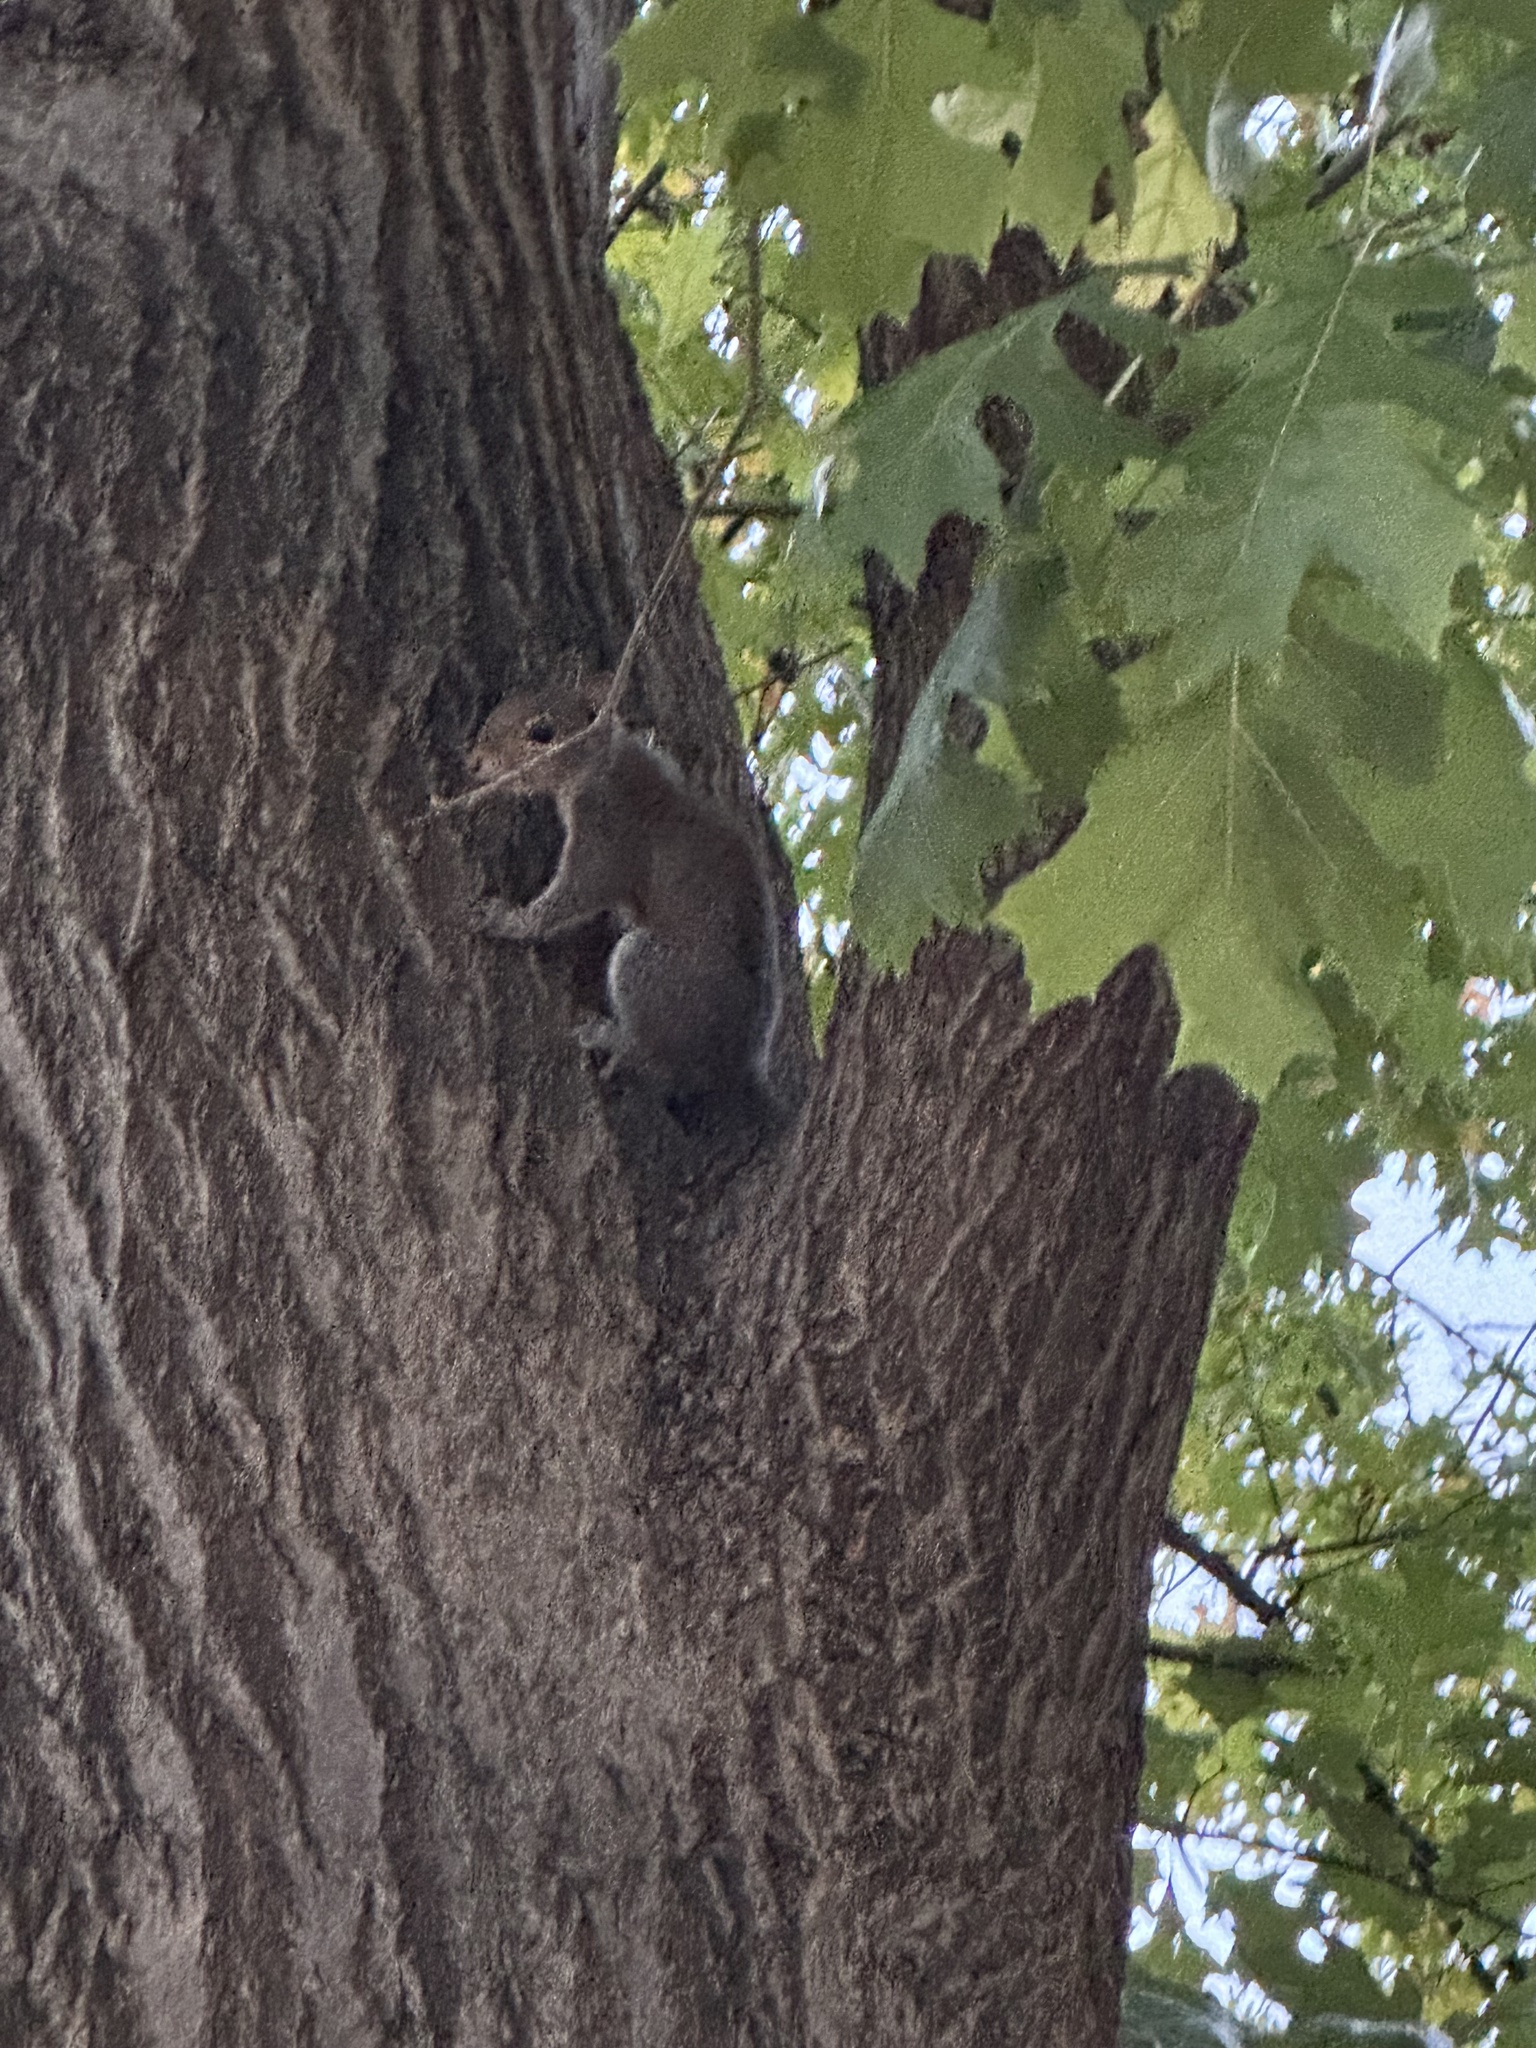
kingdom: Animalia
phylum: Chordata
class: Mammalia
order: Rodentia
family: Sciuridae
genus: Sciurus
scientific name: Sciurus carolinensis
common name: Eastern gray squirrel
